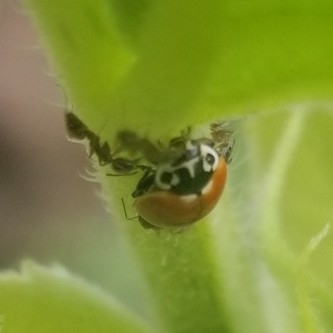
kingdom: Animalia
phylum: Arthropoda
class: Insecta
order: Coleoptera
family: Coccinellidae
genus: Cycloneda
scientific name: Cycloneda polita
